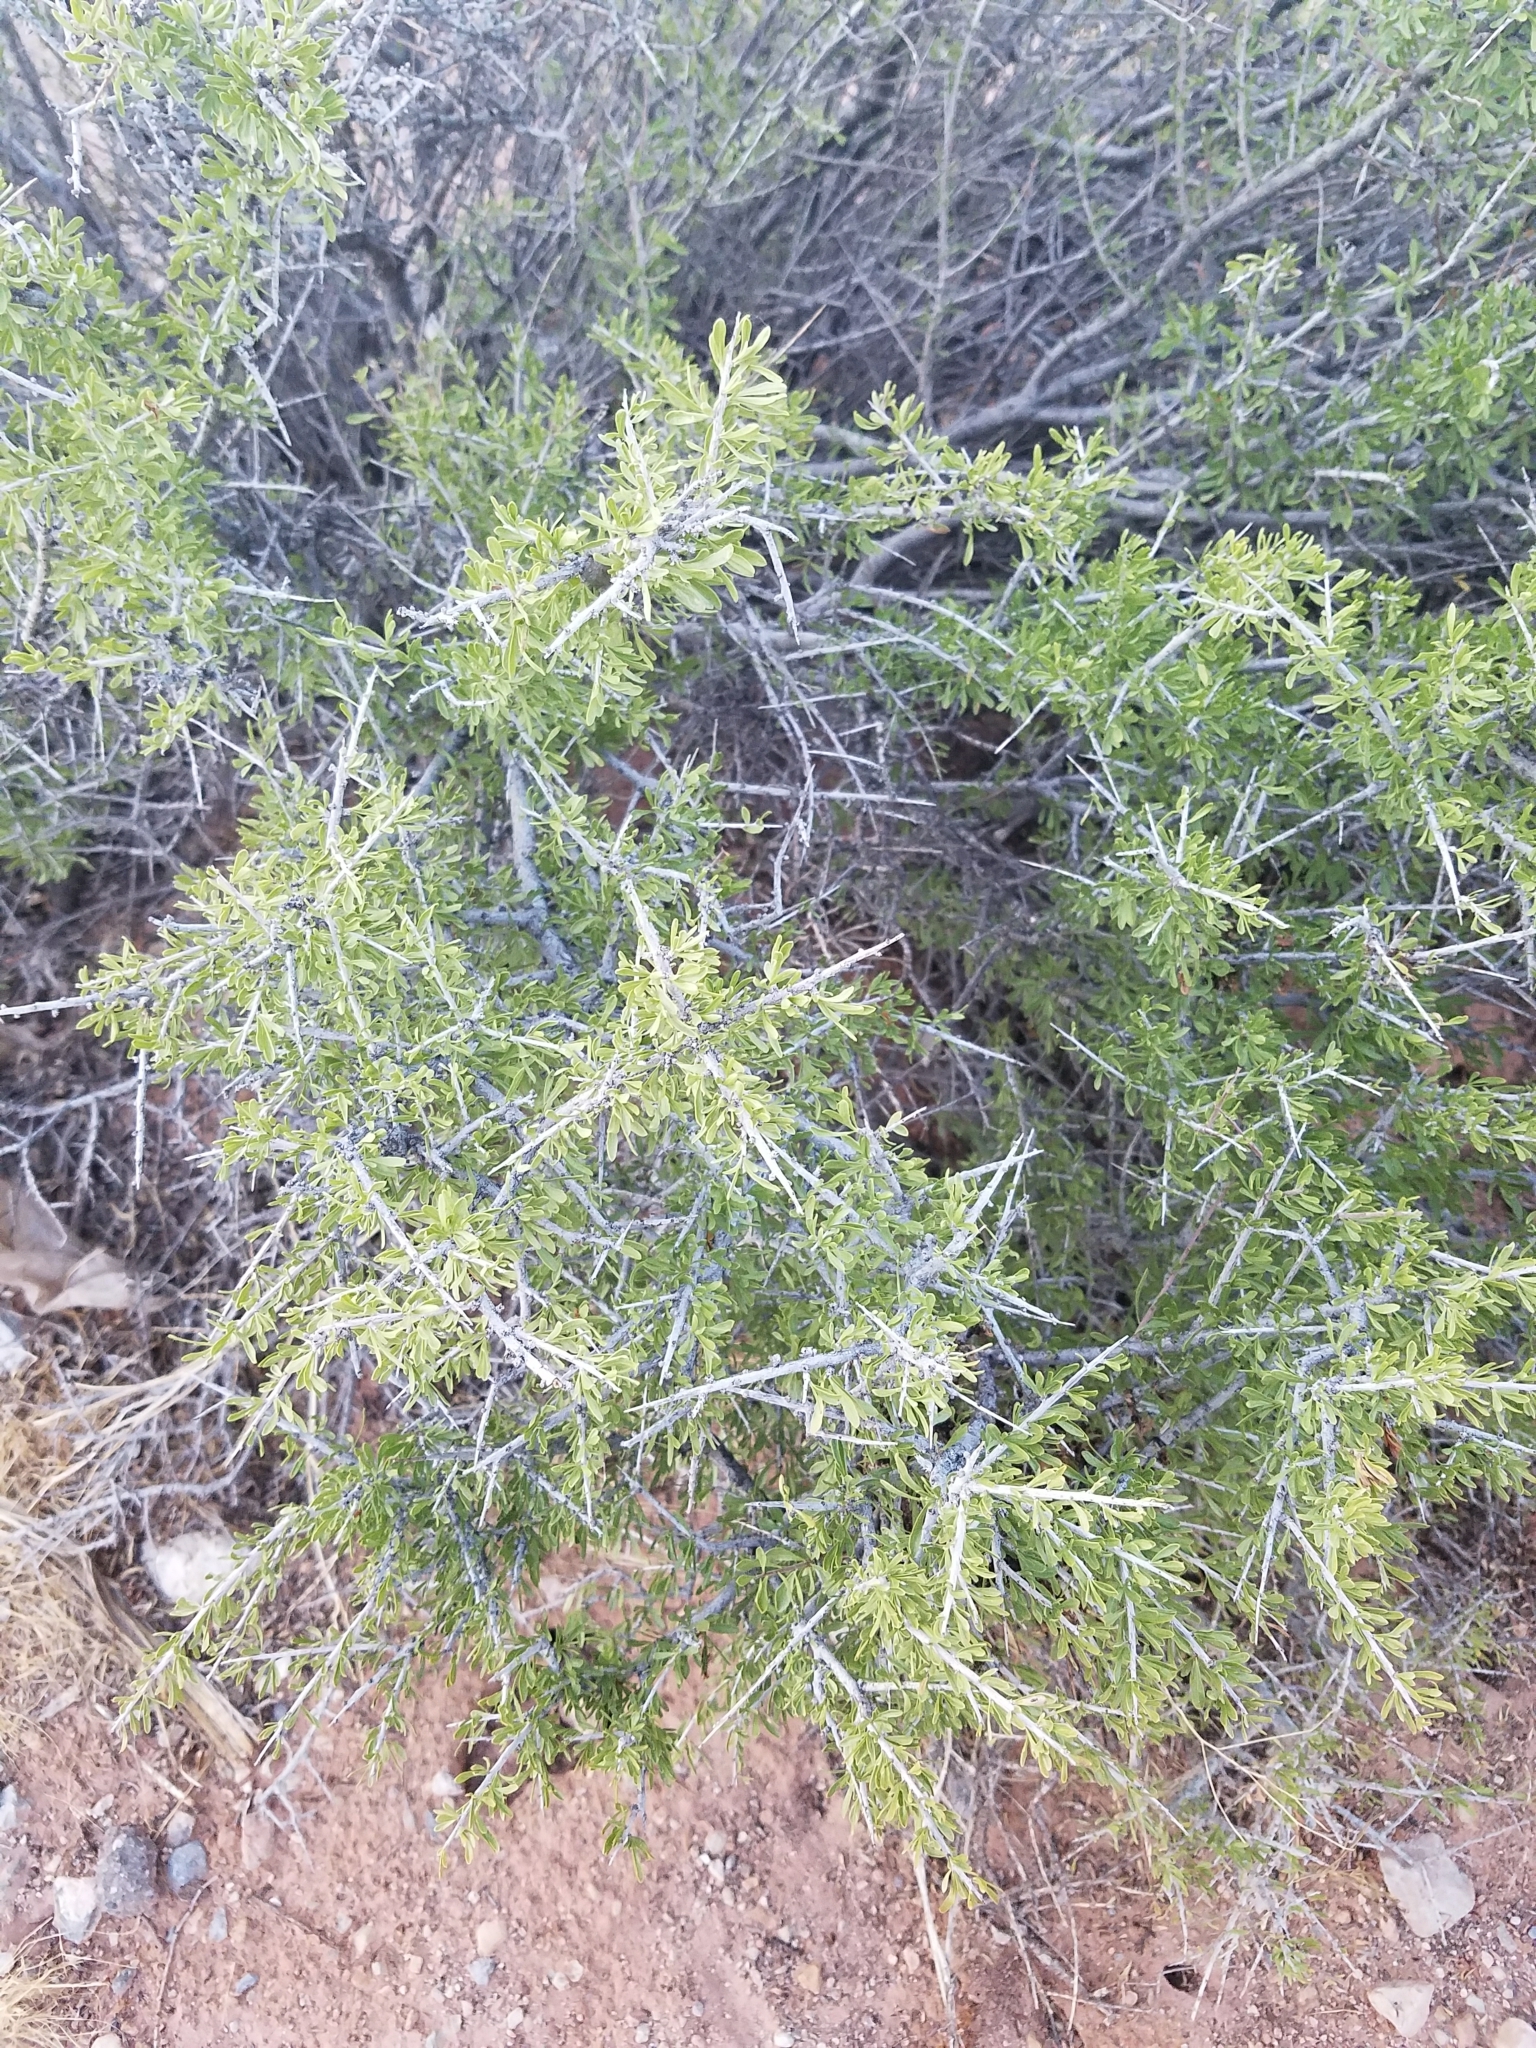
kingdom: Plantae
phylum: Tracheophyta
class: Magnoliopsida
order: Rosales
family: Rosaceae
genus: Prunus
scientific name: Prunus fasciculata
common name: Desert almond
